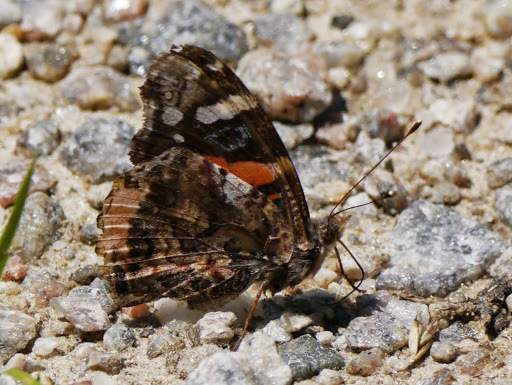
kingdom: Animalia
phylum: Arthropoda
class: Insecta
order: Lepidoptera
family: Nymphalidae
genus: Vanessa
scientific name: Vanessa atalanta
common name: Red admiral
